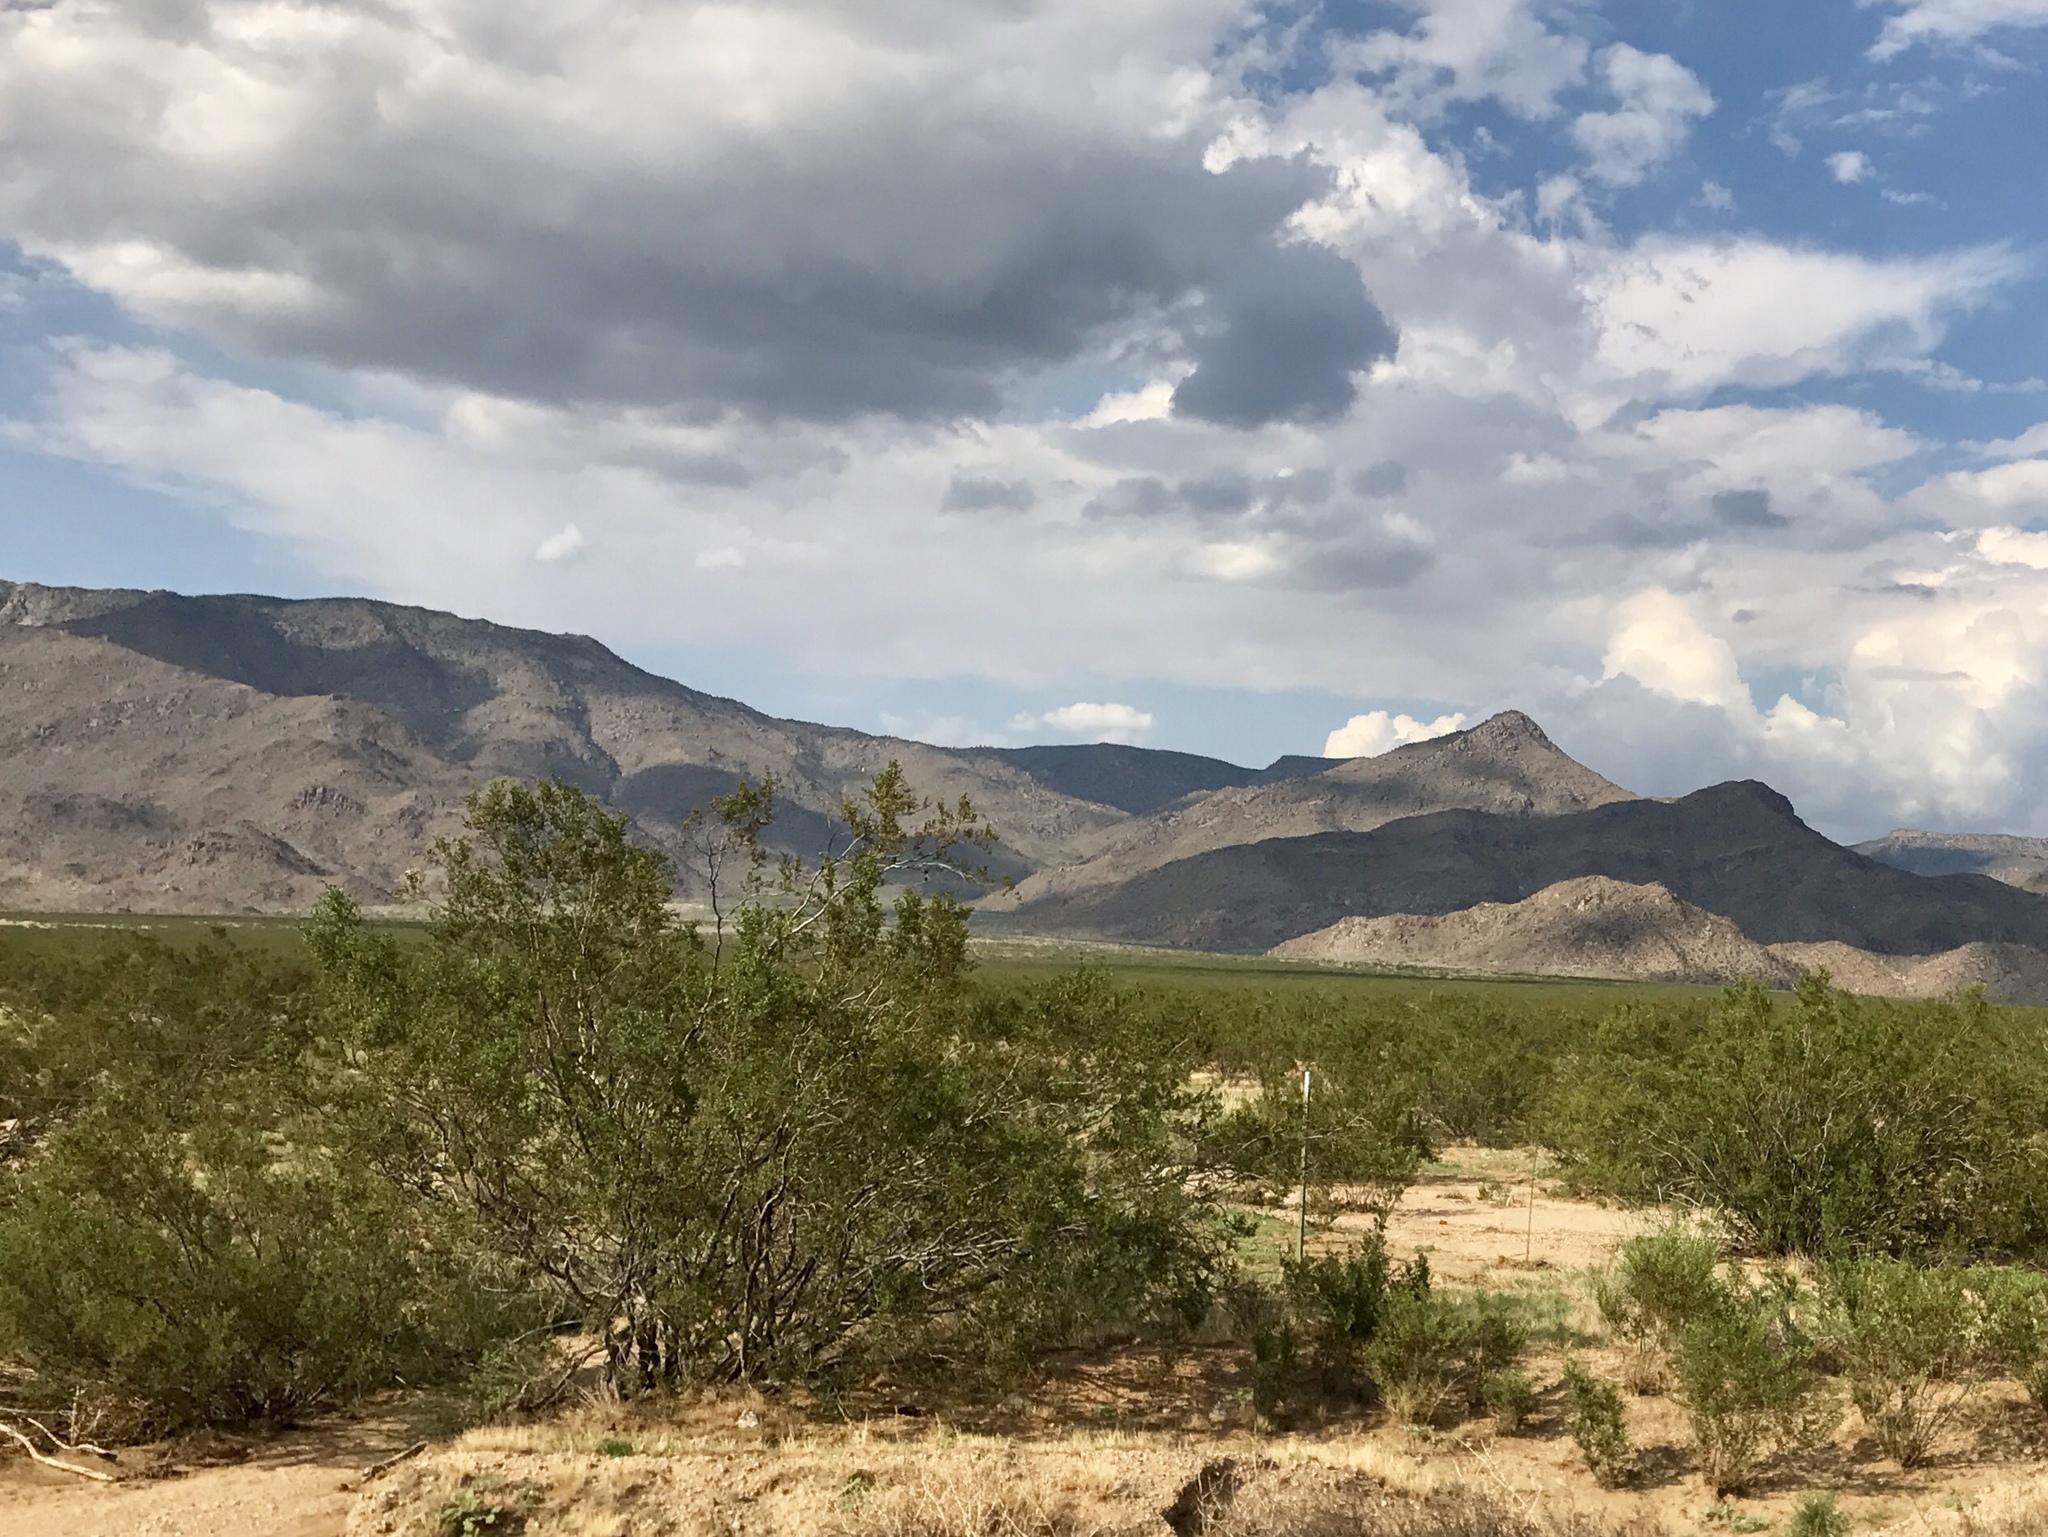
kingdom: Plantae
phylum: Tracheophyta
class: Magnoliopsida
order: Zygophyllales
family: Zygophyllaceae
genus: Larrea
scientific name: Larrea tridentata
